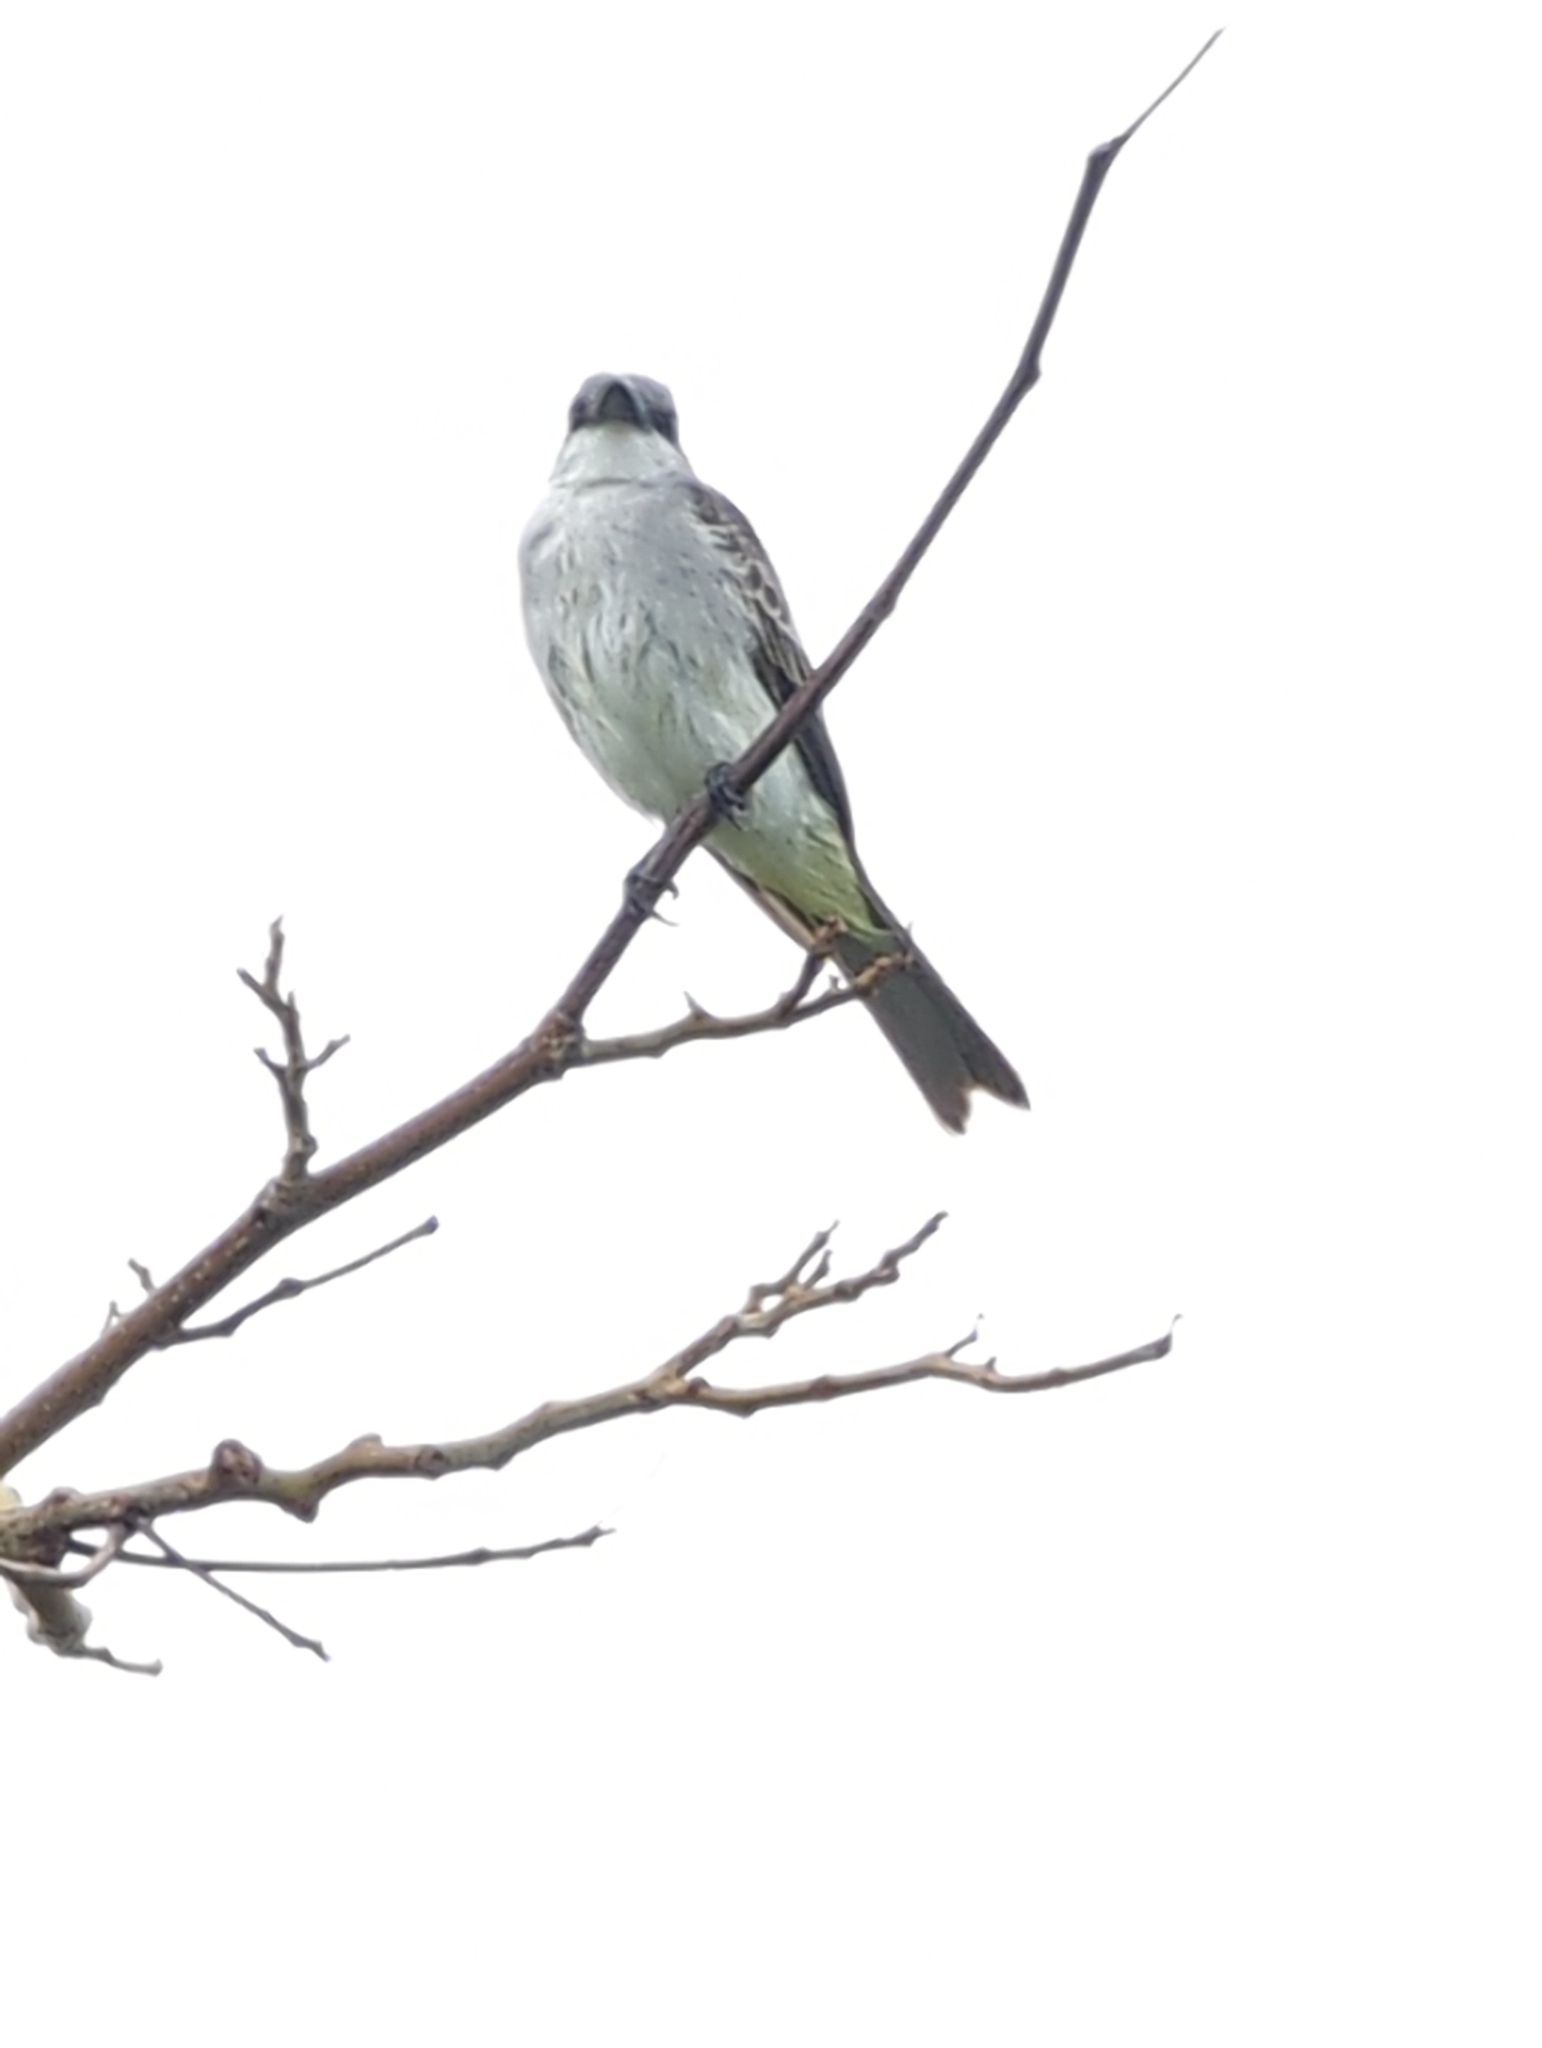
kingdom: Animalia
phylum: Chordata
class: Aves
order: Passeriformes
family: Tyrannidae
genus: Tyrannus
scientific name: Tyrannus dominicensis
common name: Gray kingbird
